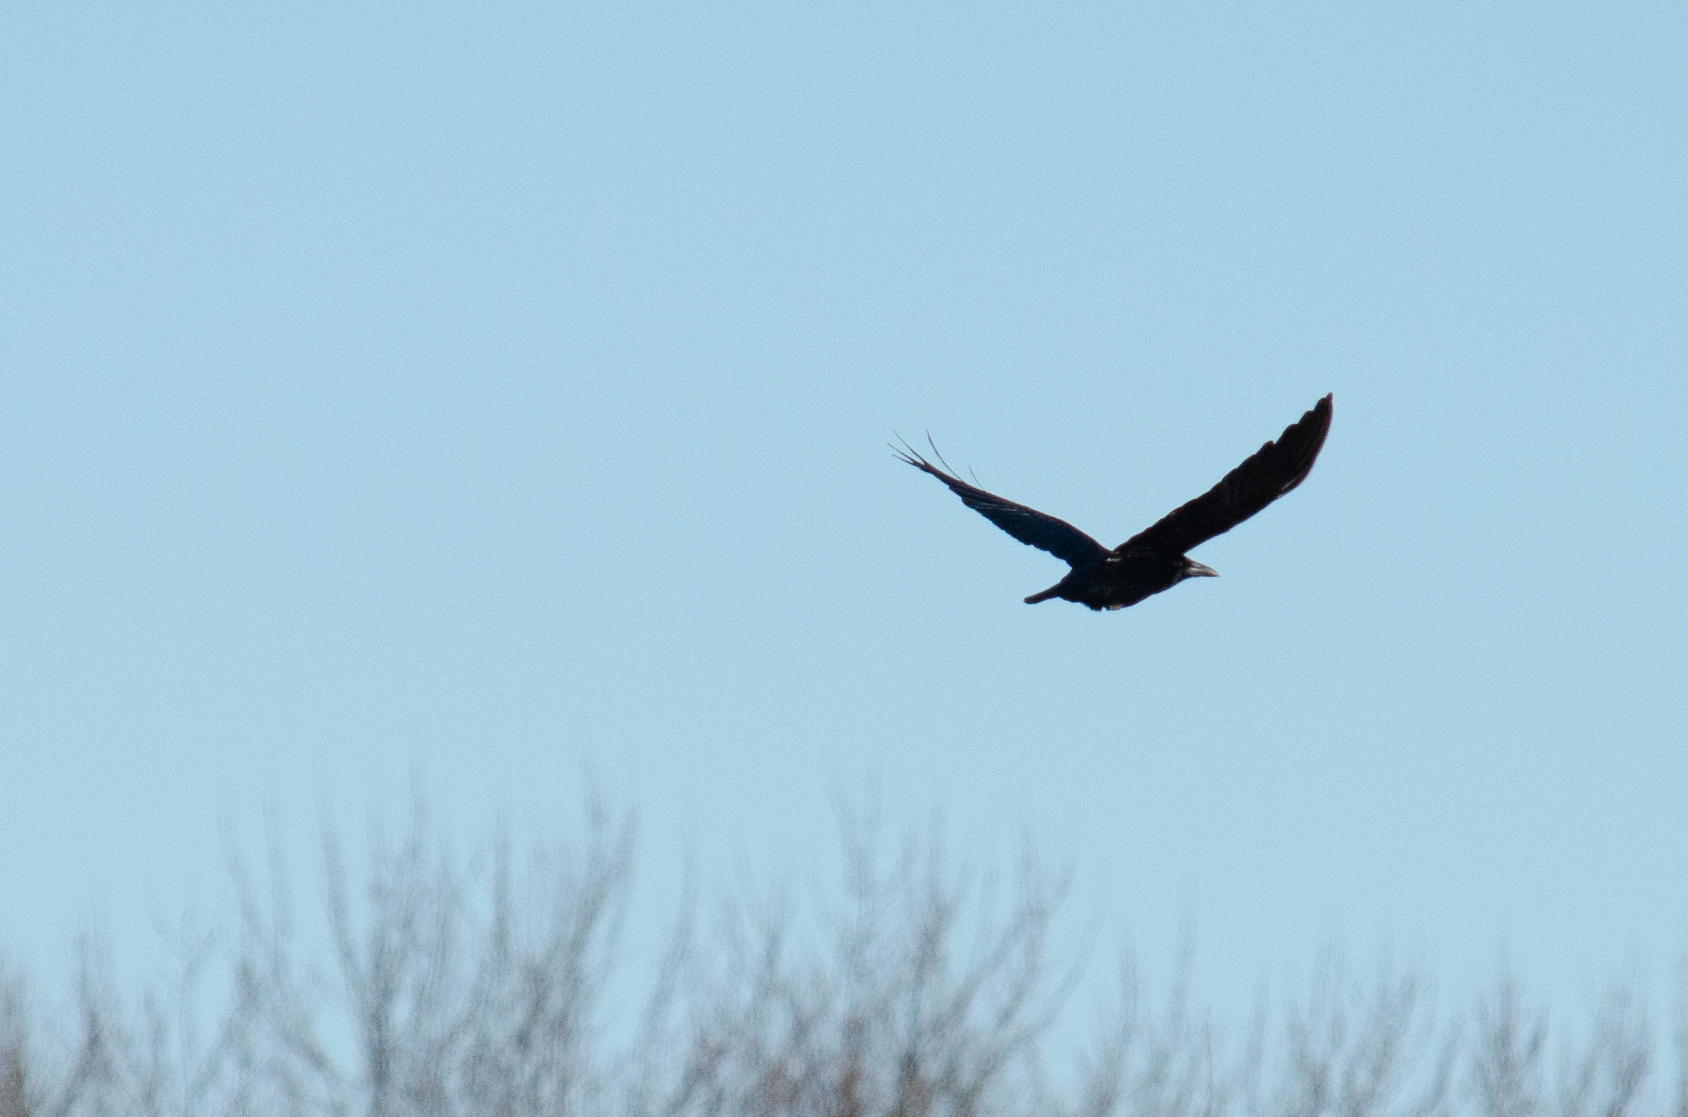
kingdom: Animalia
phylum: Chordata
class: Aves
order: Passeriformes
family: Corvidae
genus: Corvus
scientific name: Corvus brachyrhynchos
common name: American crow
